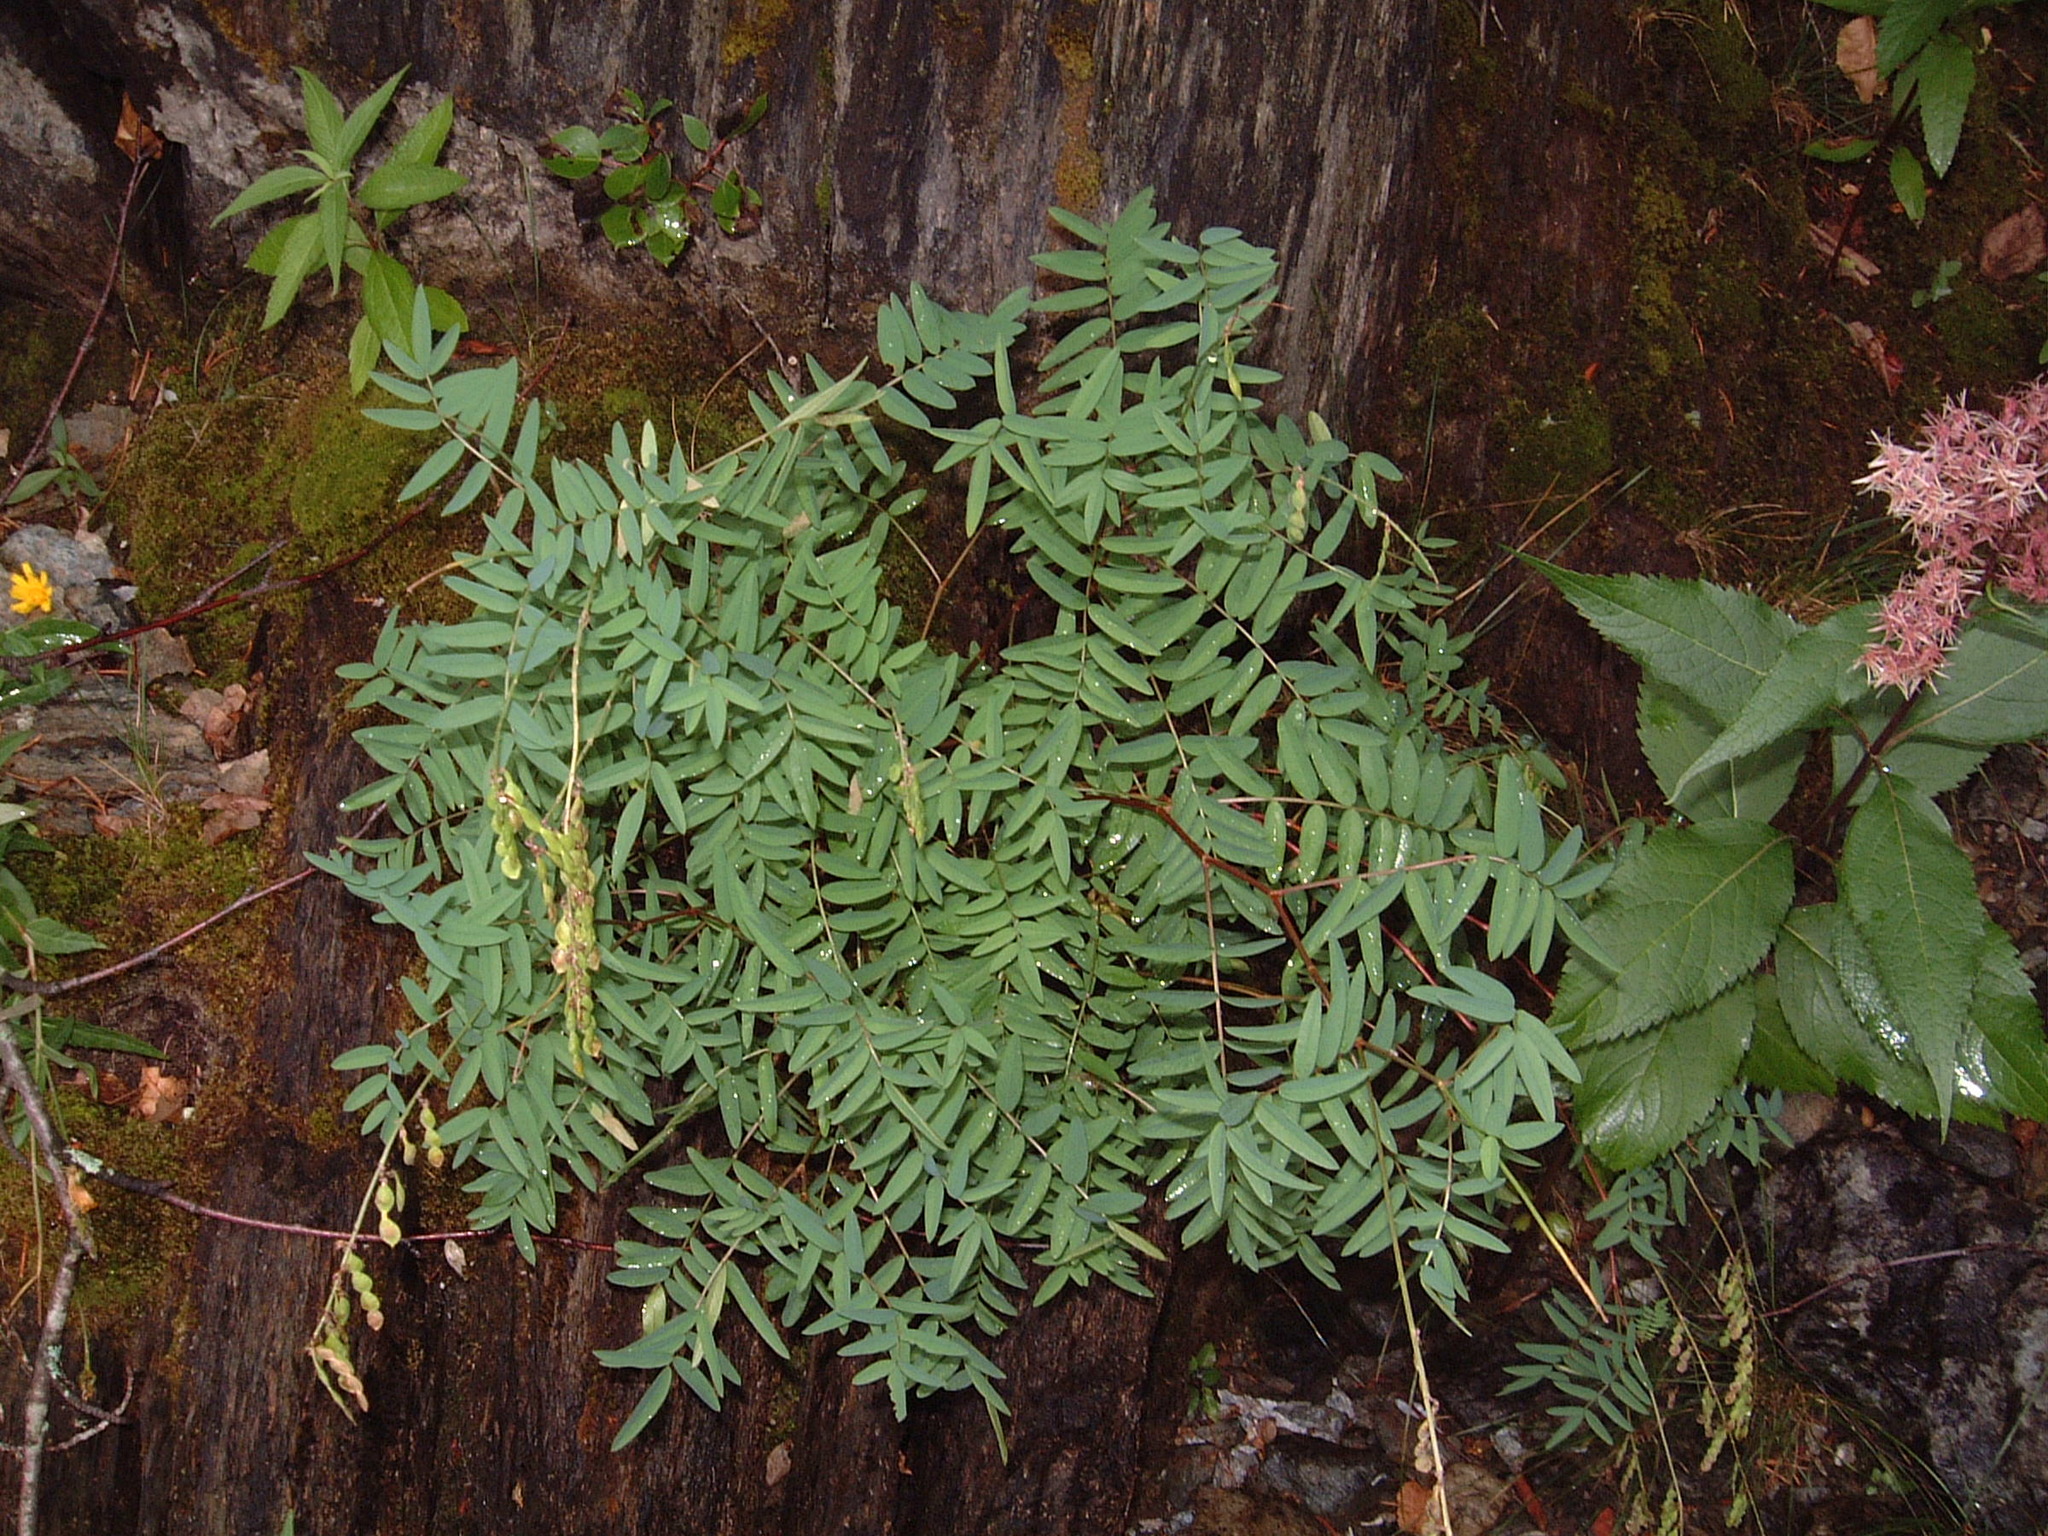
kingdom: Plantae
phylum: Tracheophyta
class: Magnoliopsida
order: Fabales
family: Fabaceae
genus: Hedysarum
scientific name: Hedysarum alpinum
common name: Alpine sweet-vetch
